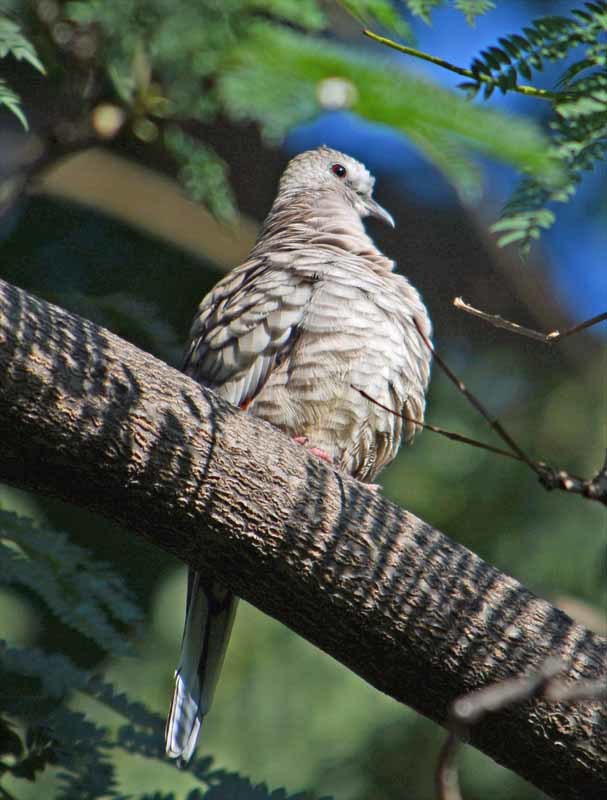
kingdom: Animalia
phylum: Chordata
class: Aves
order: Columbiformes
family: Columbidae
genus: Columbina
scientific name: Columbina inca
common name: Inca dove
